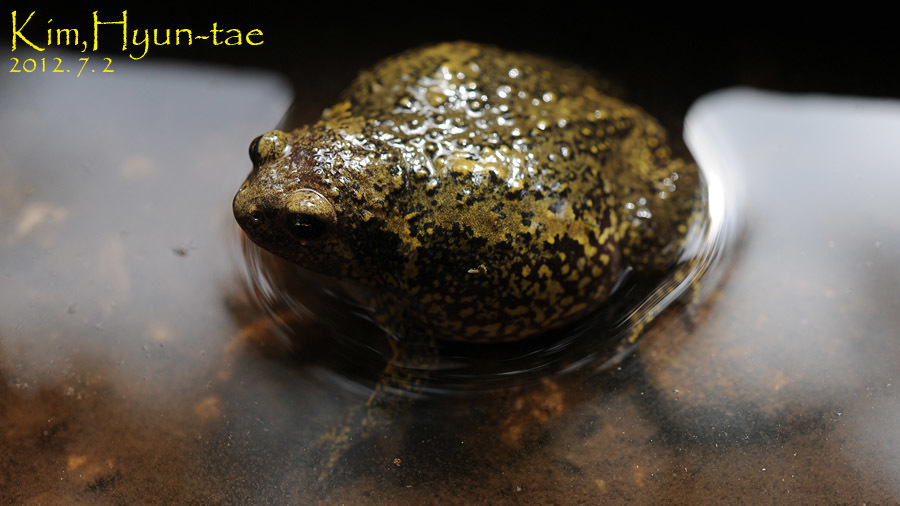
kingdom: Animalia
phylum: Chordata
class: Amphibia
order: Anura
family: Microhylidae
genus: Kaloula
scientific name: Kaloula borealis
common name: Boreal digging frog
